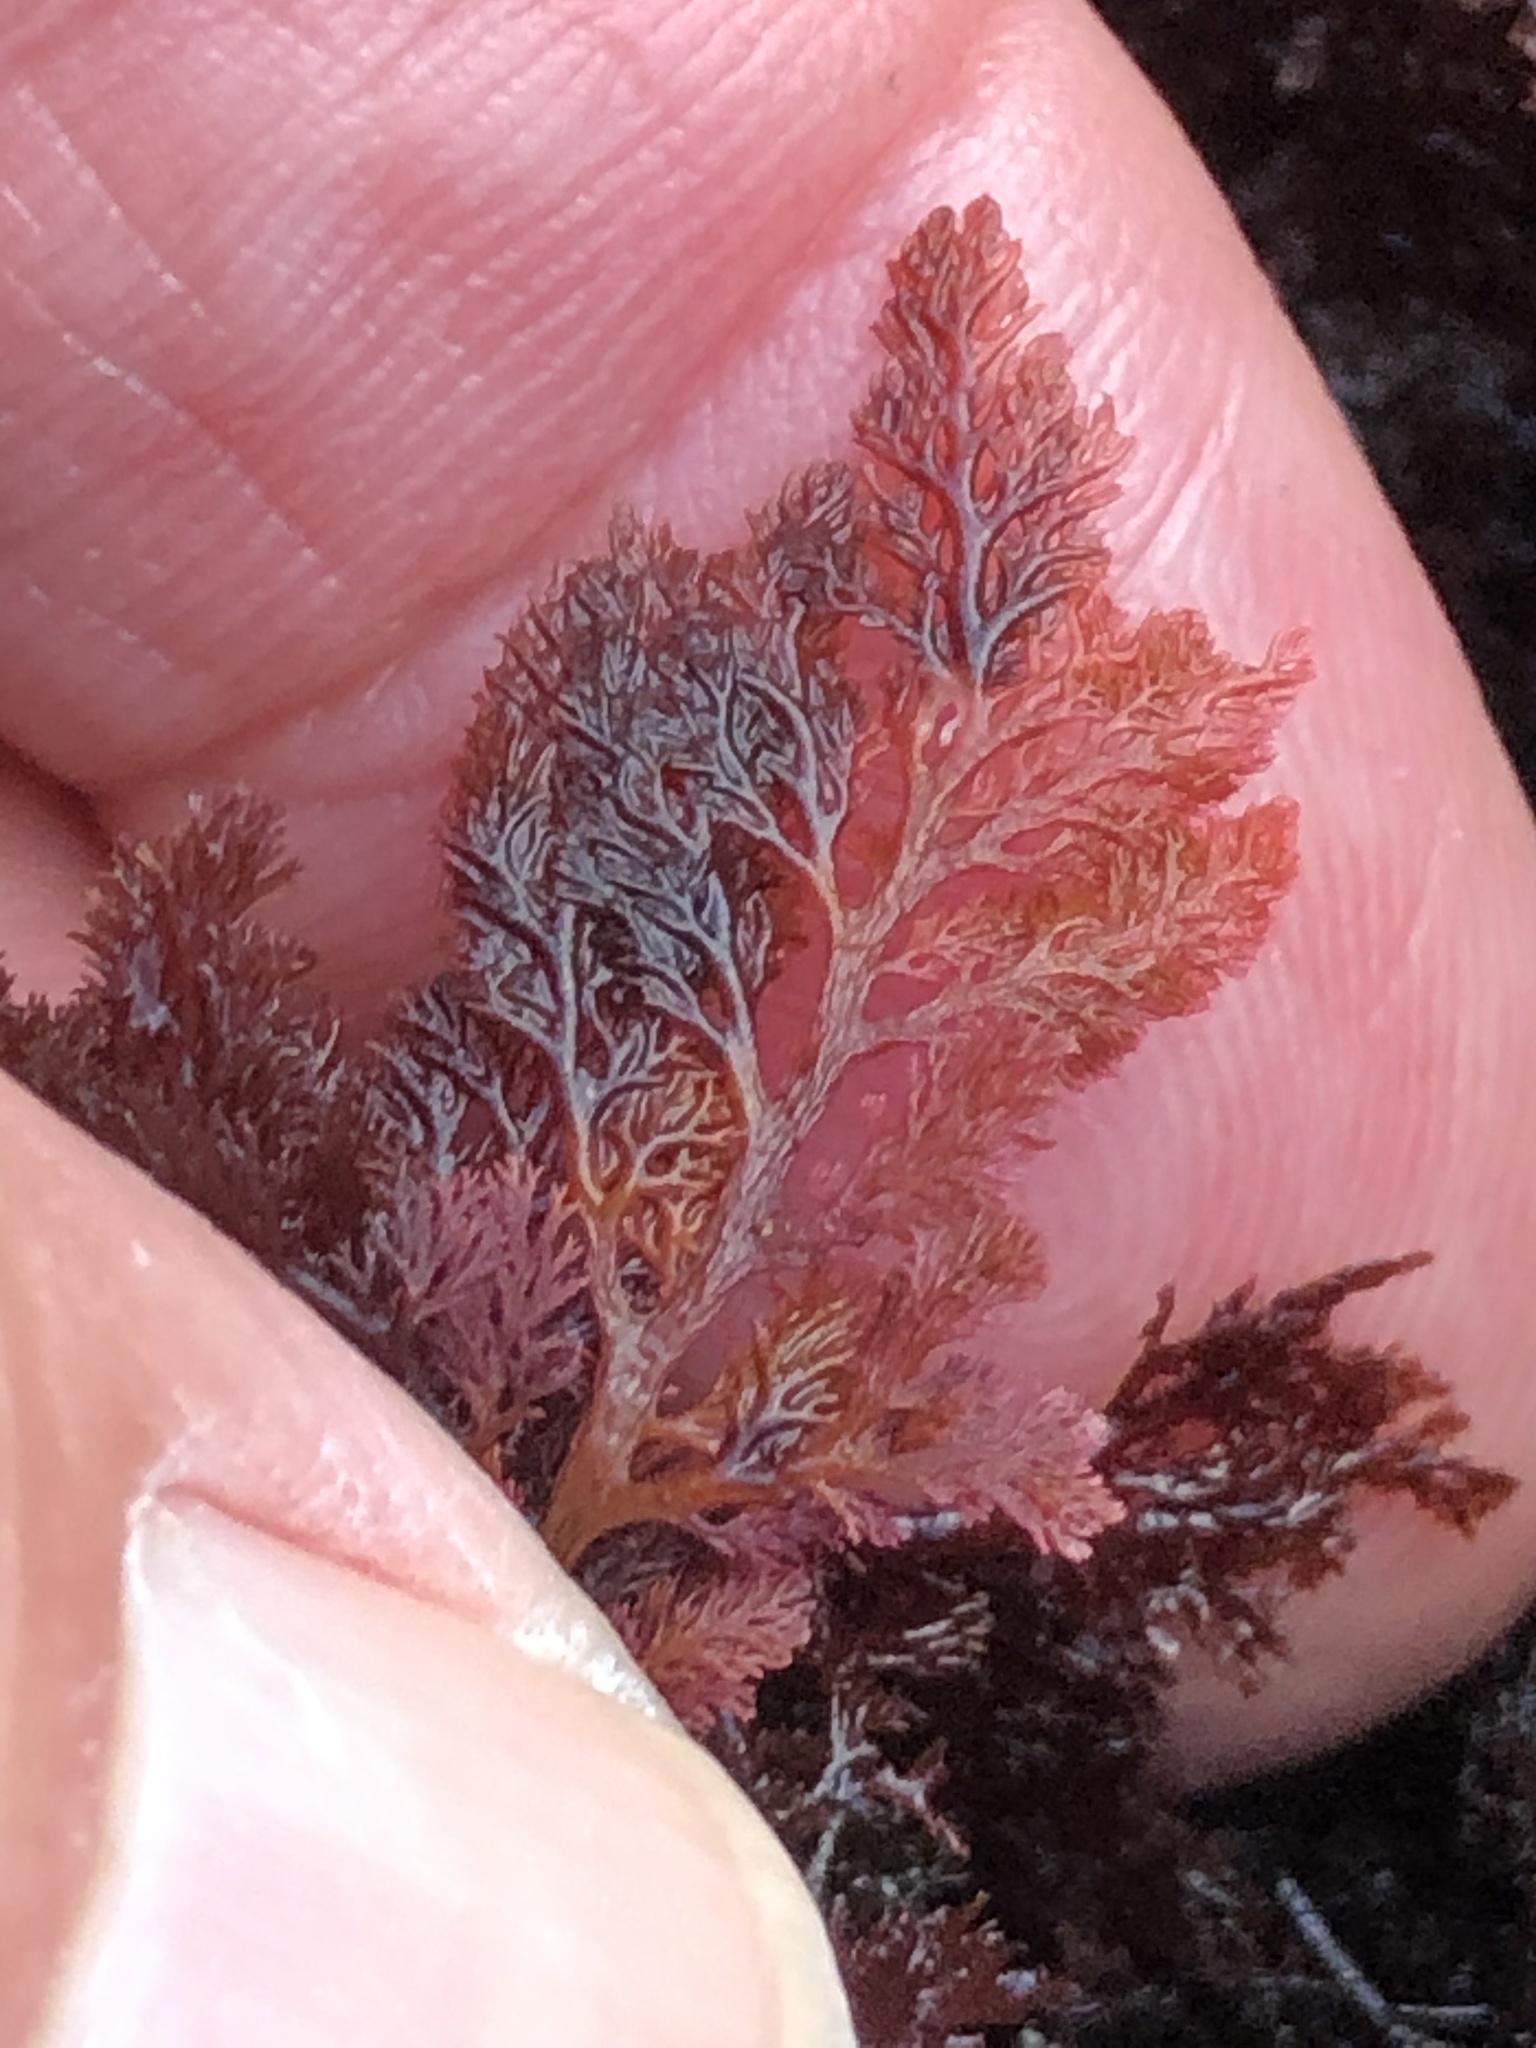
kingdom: Plantae
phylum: Rhodophyta
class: Florideophyceae
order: Plocamiales
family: Plocamiaceae
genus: Plocamium
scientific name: Plocamium cartilagineum
